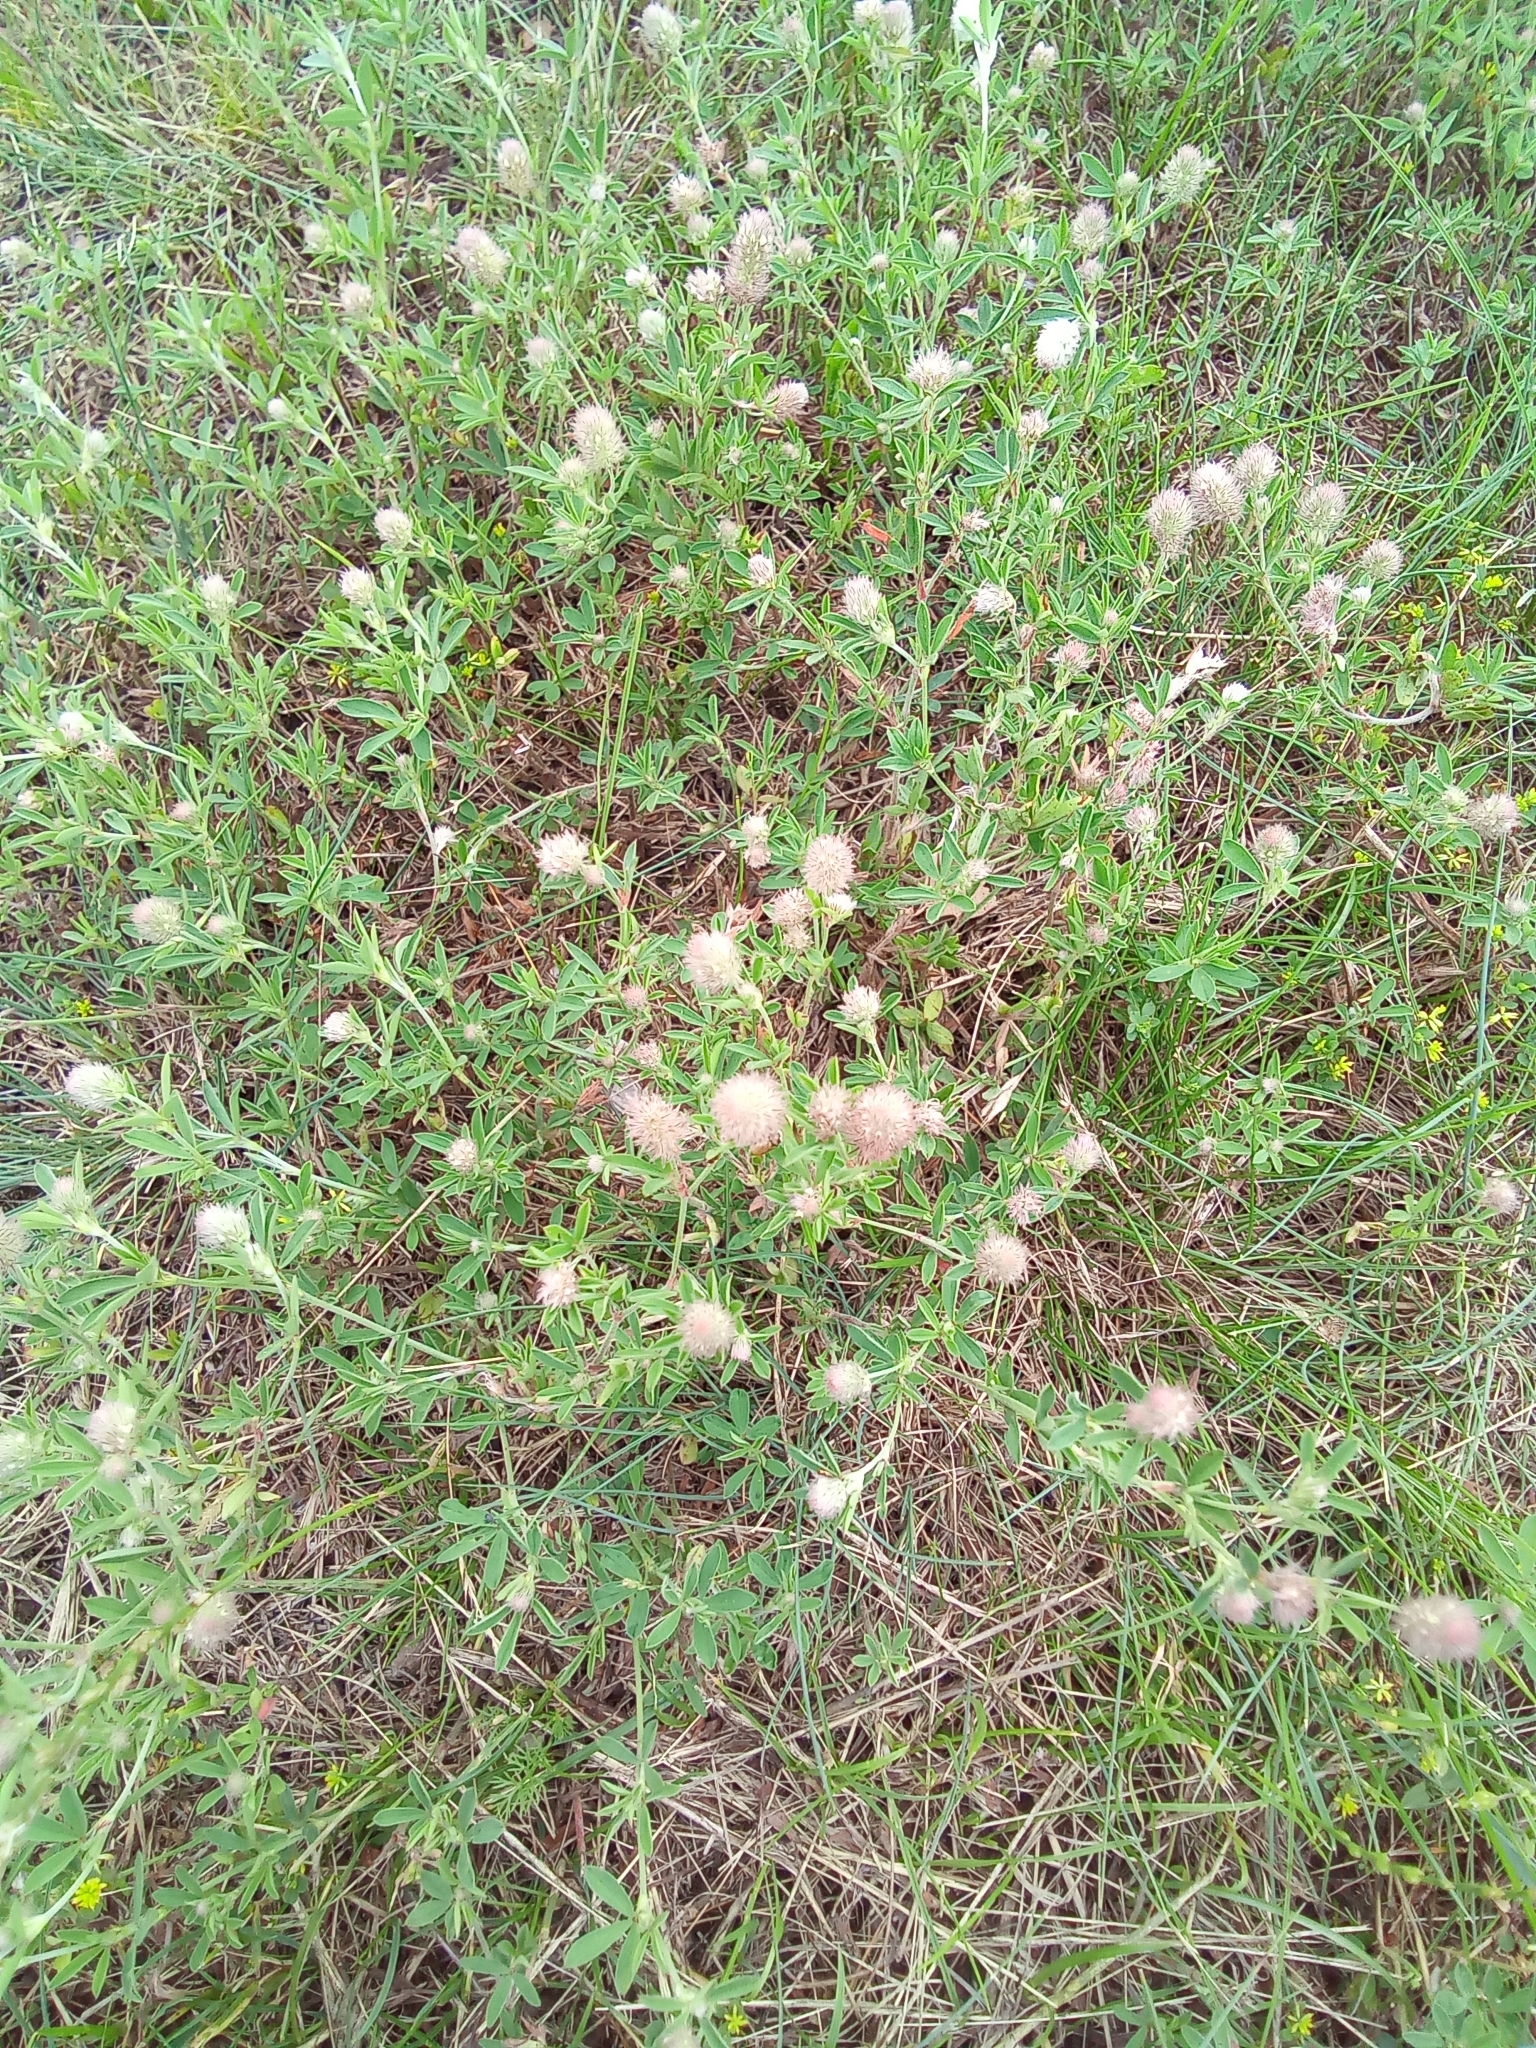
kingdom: Plantae
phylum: Tracheophyta
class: Magnoliopsida
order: Fabales
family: Fabaceae
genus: Trifolium
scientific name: Trifolium arvense
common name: Hare's-foot clover
